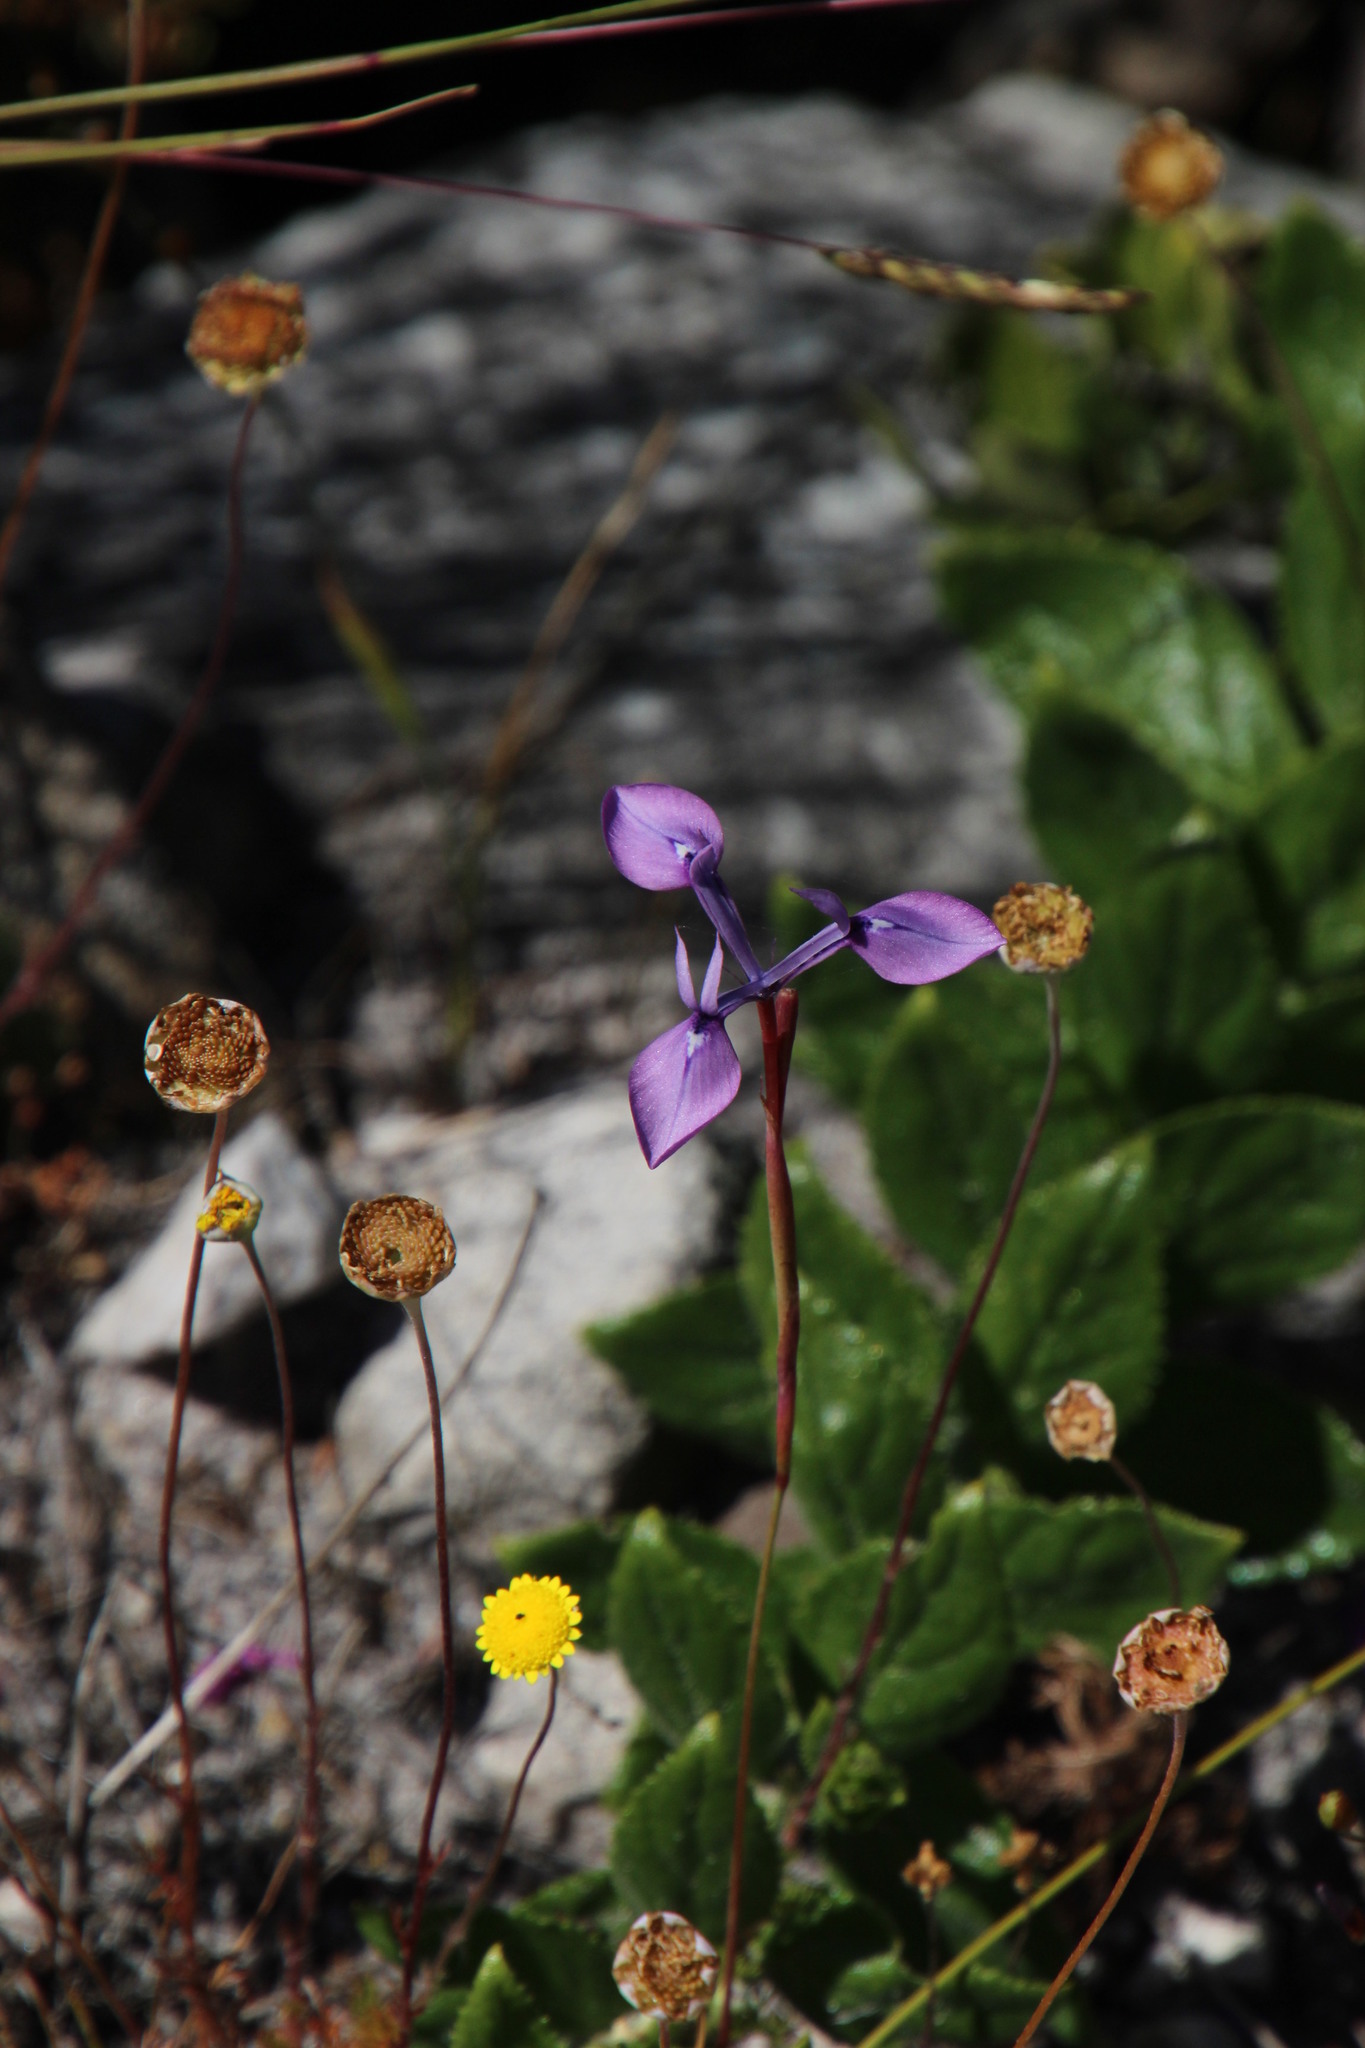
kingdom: Plantae
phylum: Tracheophyta
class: Liliopsida
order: Asparagales
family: Iridaceae
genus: Moraea
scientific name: Moraea tripetala
